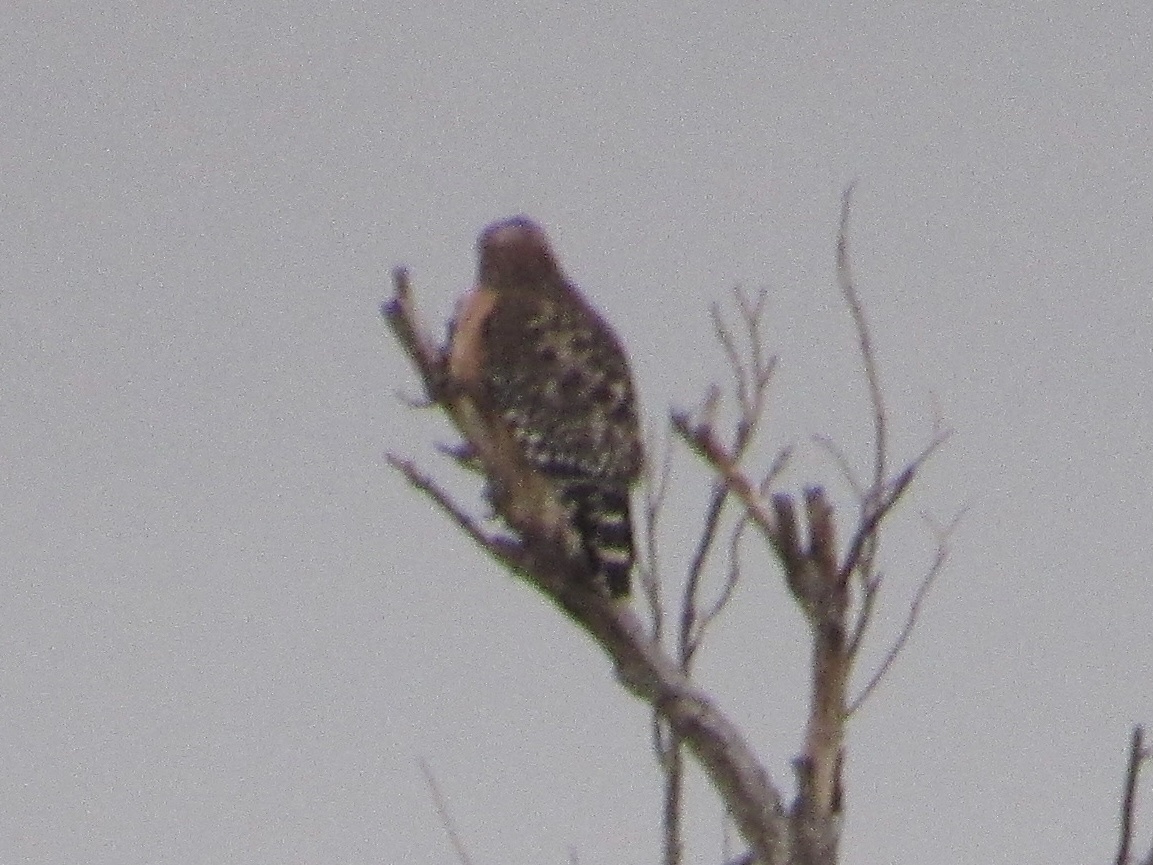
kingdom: Animalia
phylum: Chordata
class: Aves
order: Accipitriformes
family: Accipitridae
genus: Buteo
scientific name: Buteo lineatus
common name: Red-shouldered hawk
